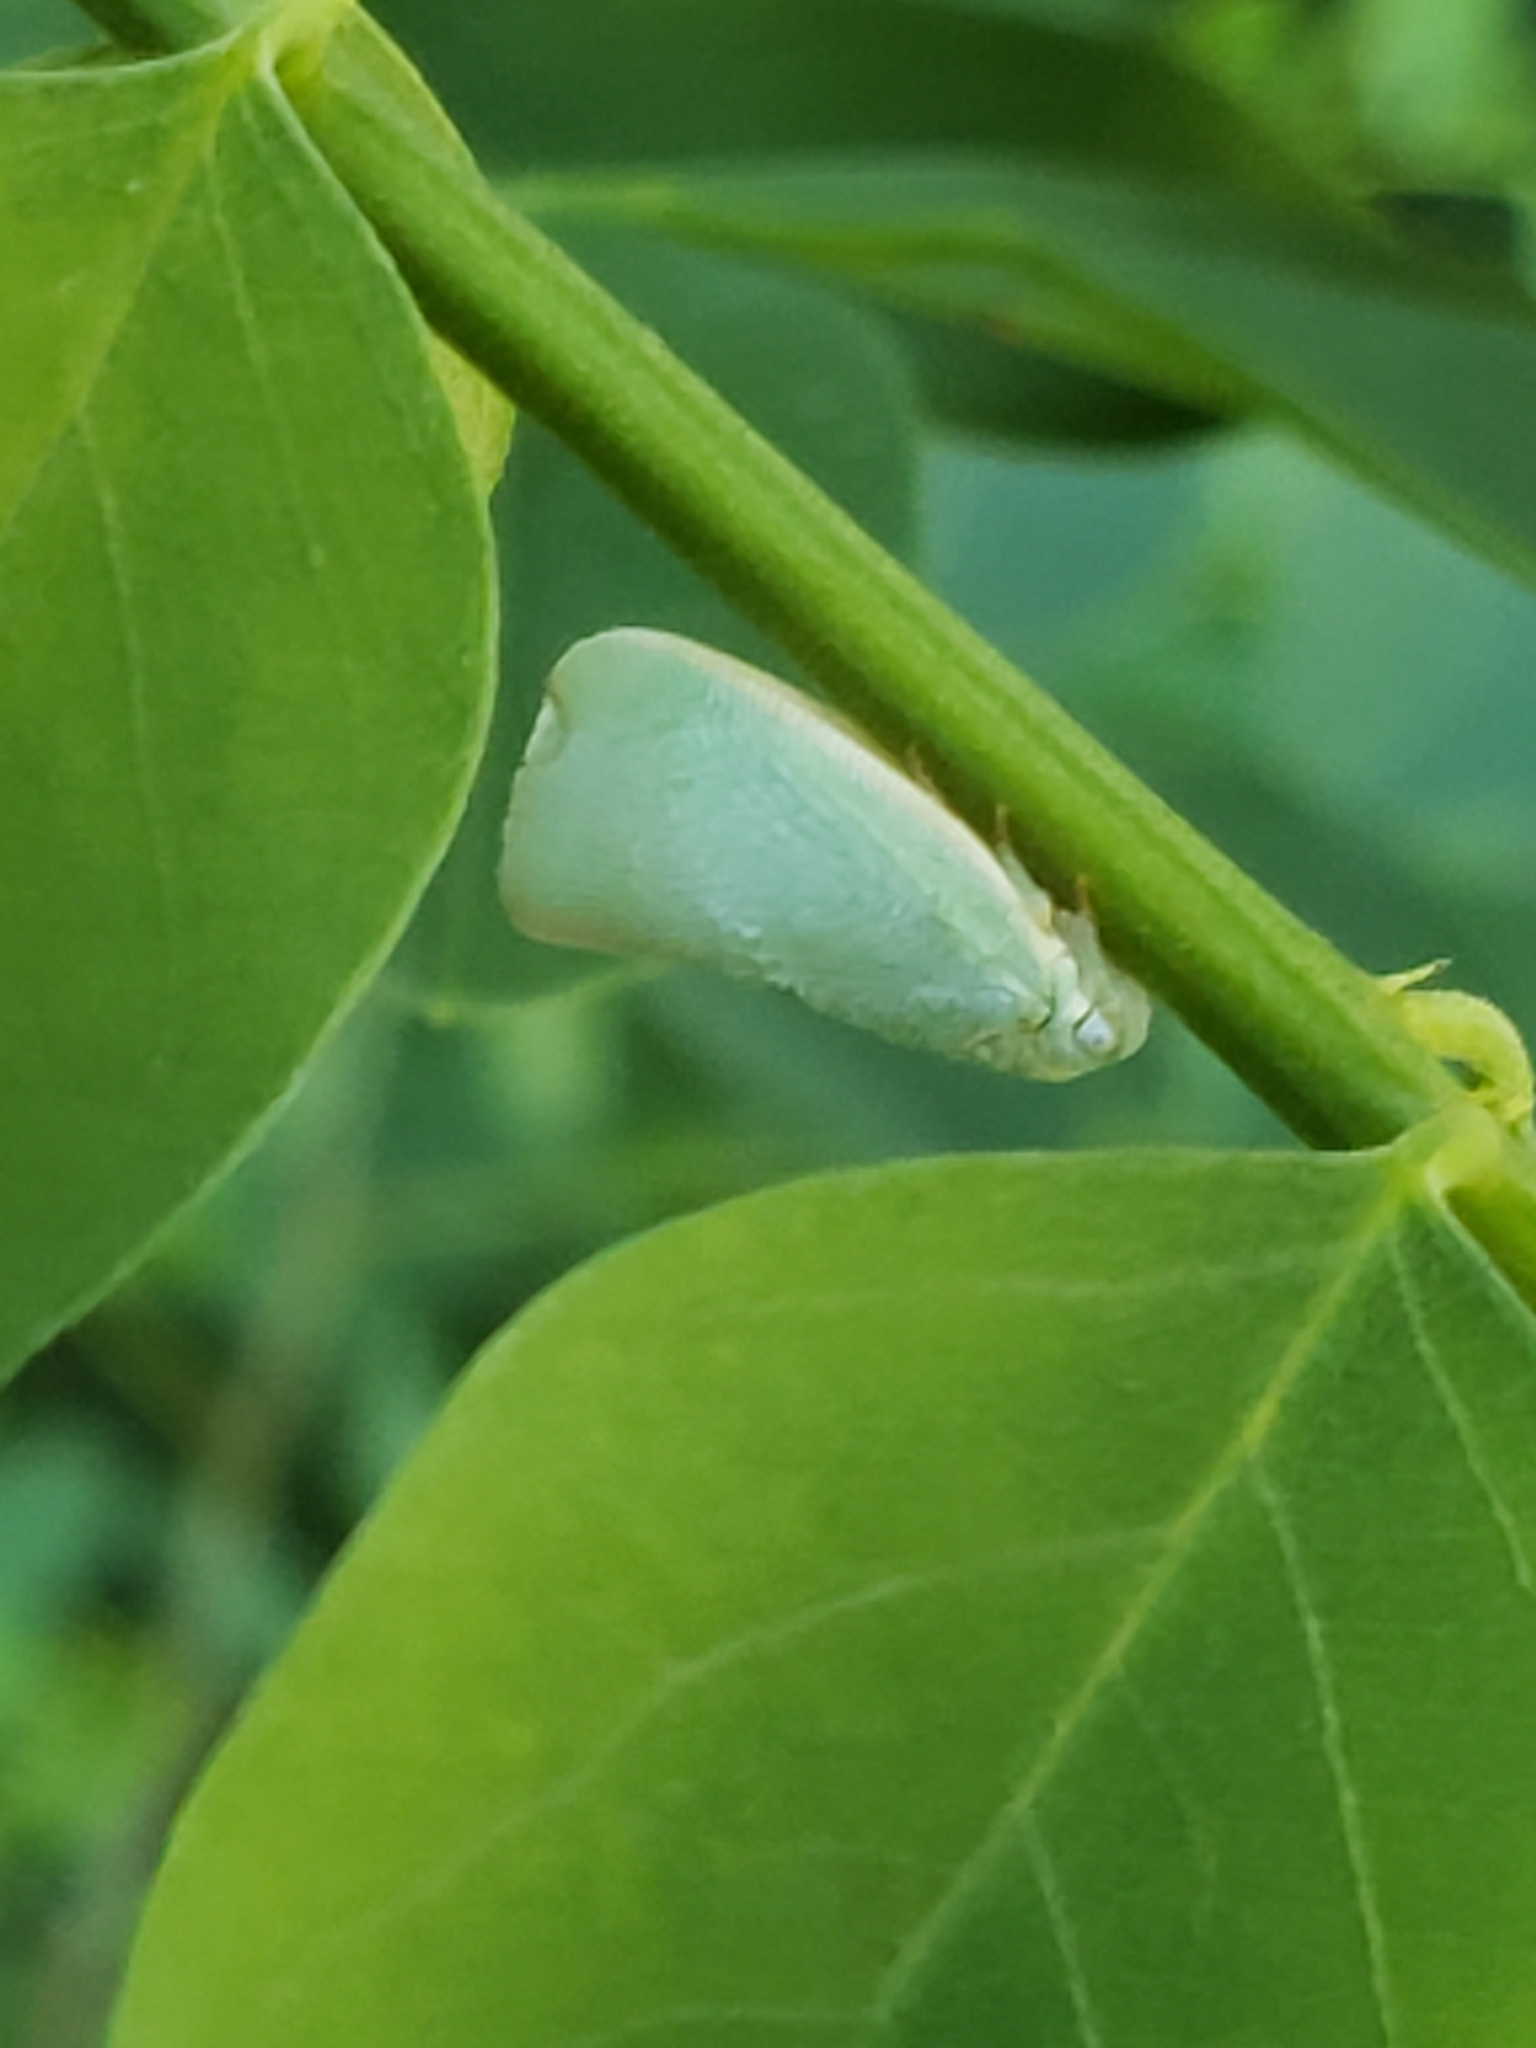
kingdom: Animalia
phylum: Arthropoda
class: Insecta
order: Hemiptera
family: Flatidae
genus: Flatormenis
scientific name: Flatormenis proxima
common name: Northern flatid planthopper
